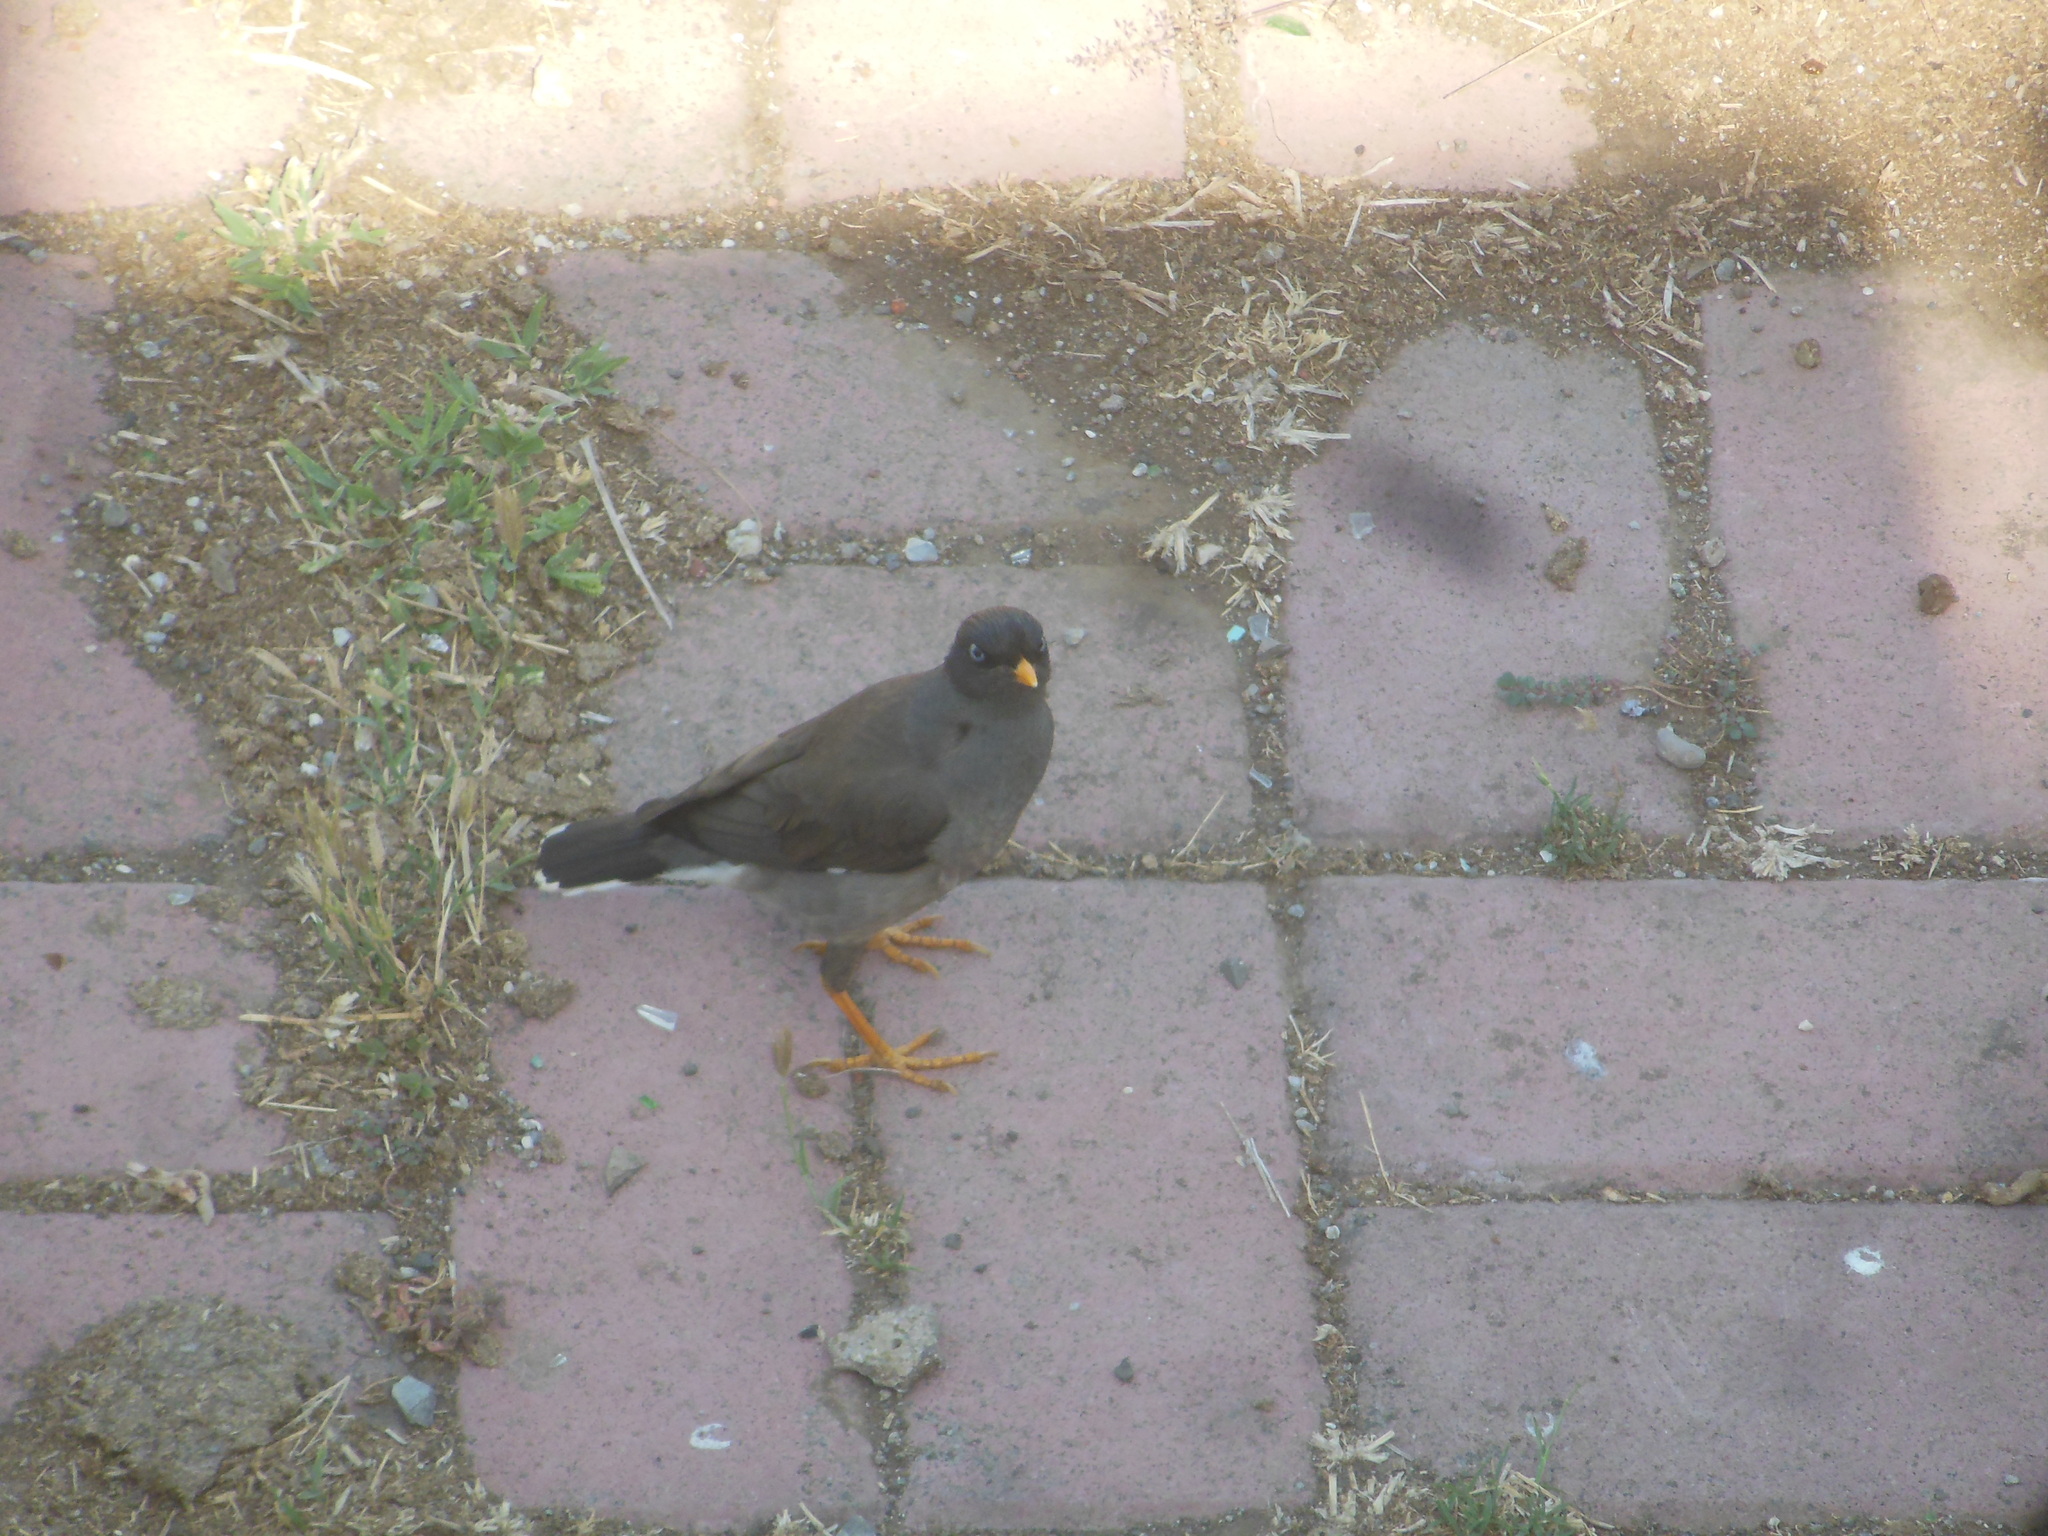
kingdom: Animalia
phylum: Chordata
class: Aves
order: Passeriformes
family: Sturnidae
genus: Acridotheres
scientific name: Acridotheres fuscus
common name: Jungle myna
